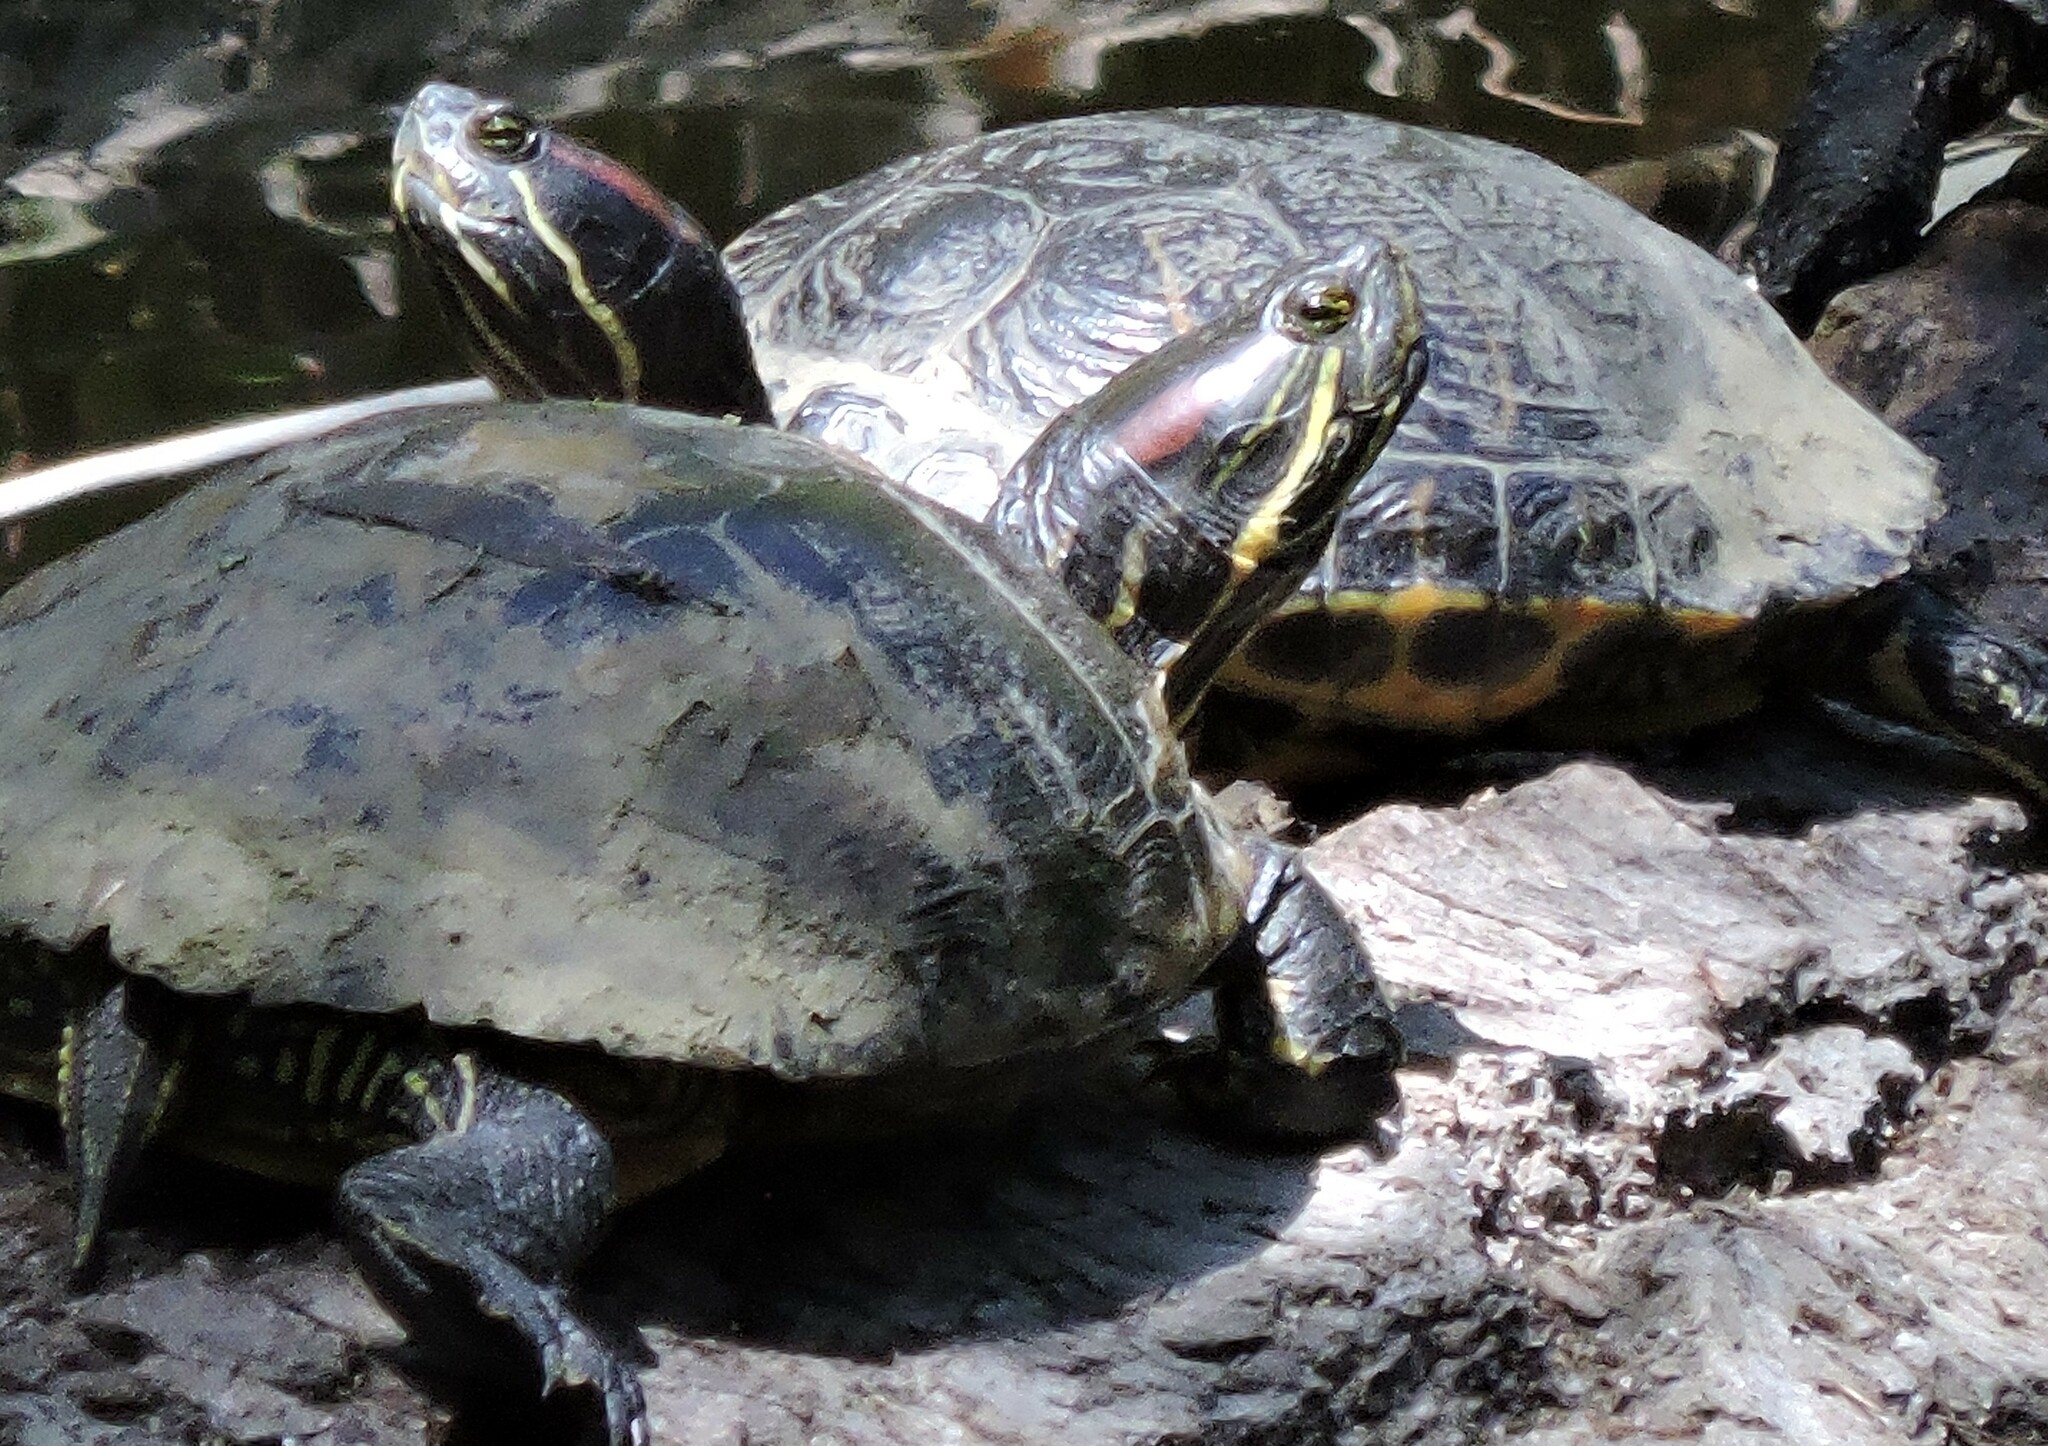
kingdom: Animalia
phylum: Chordata
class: Testudines
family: Emydidae
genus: Trachemys
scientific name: Trachemys scripta
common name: Slider
